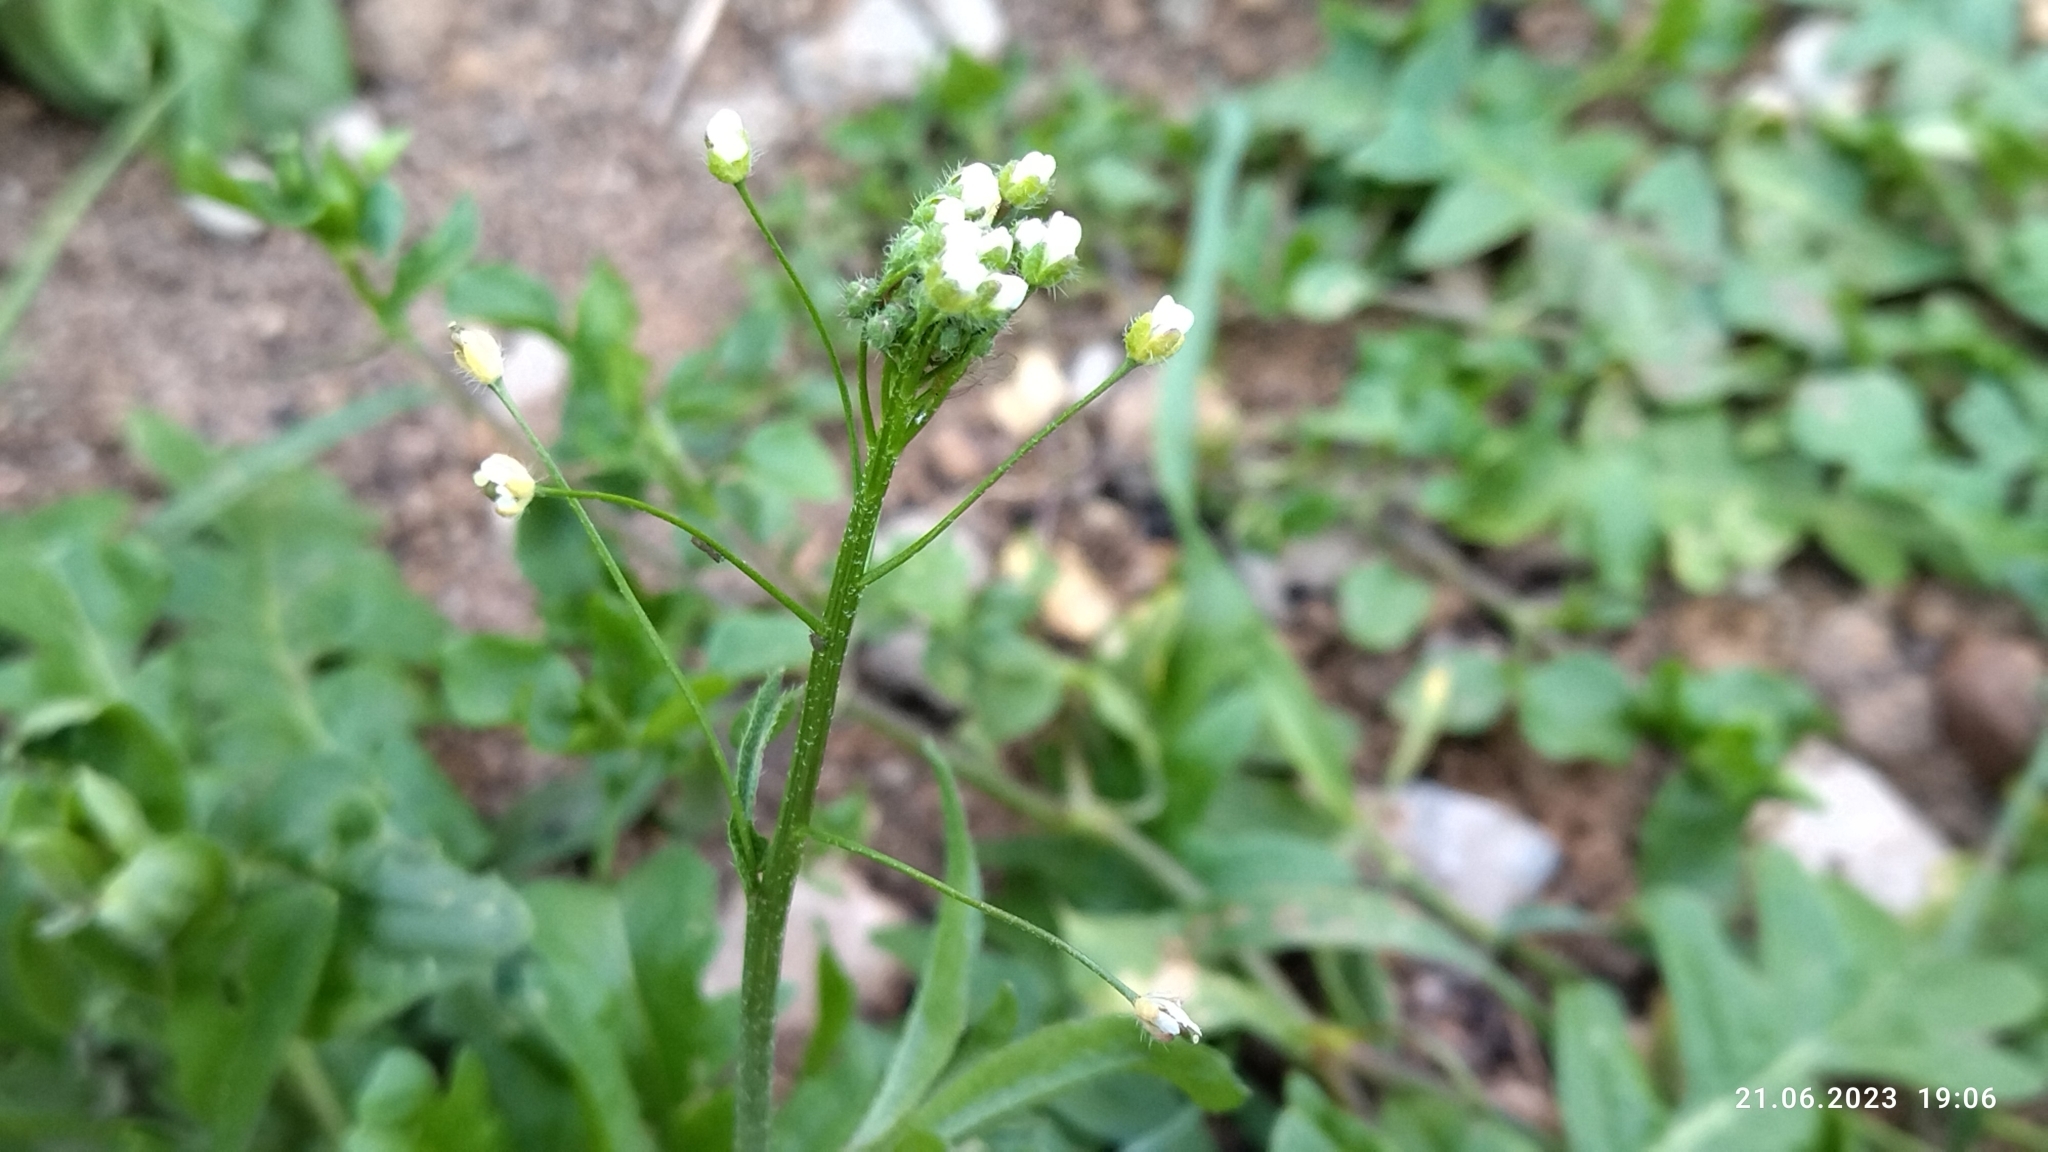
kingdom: Plantae
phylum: Tracheophyta
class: Magnoliopsida
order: Brassicales
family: Brassicaceae
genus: Capsella
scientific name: Capsella bursa-pastoris
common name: Shepherd's purse
